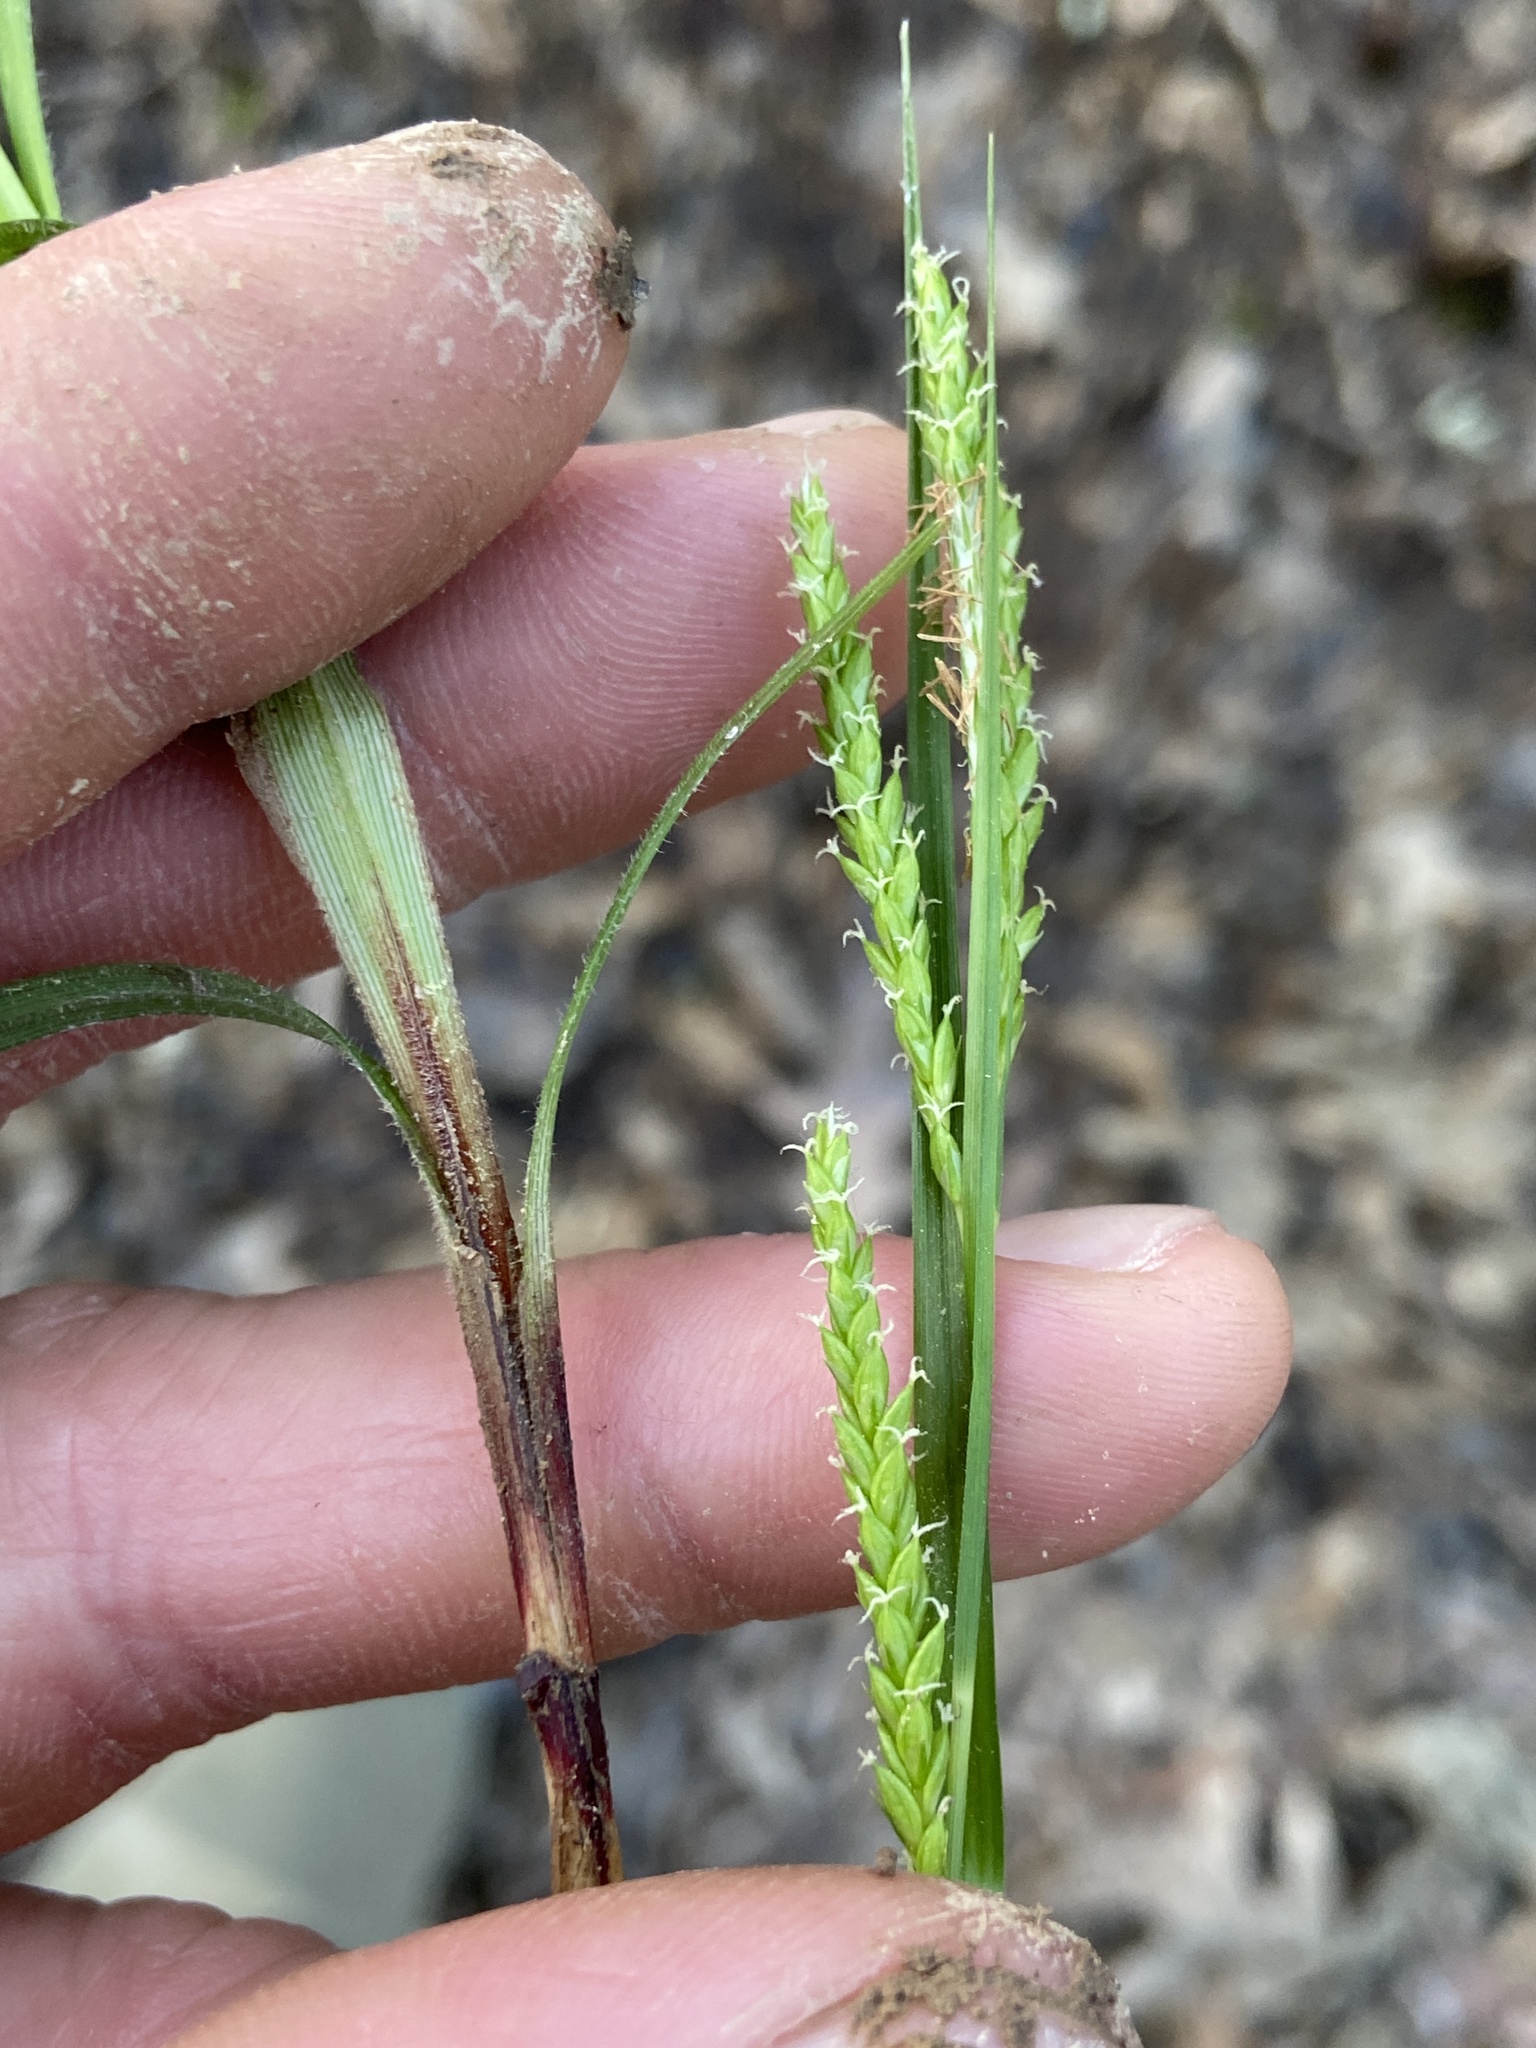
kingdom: Plantae
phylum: Tracheophyta
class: Liliopsida
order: Poales
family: Cyperaceae
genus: Carex
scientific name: Carex oxylepis
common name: Sharpscale sedge
